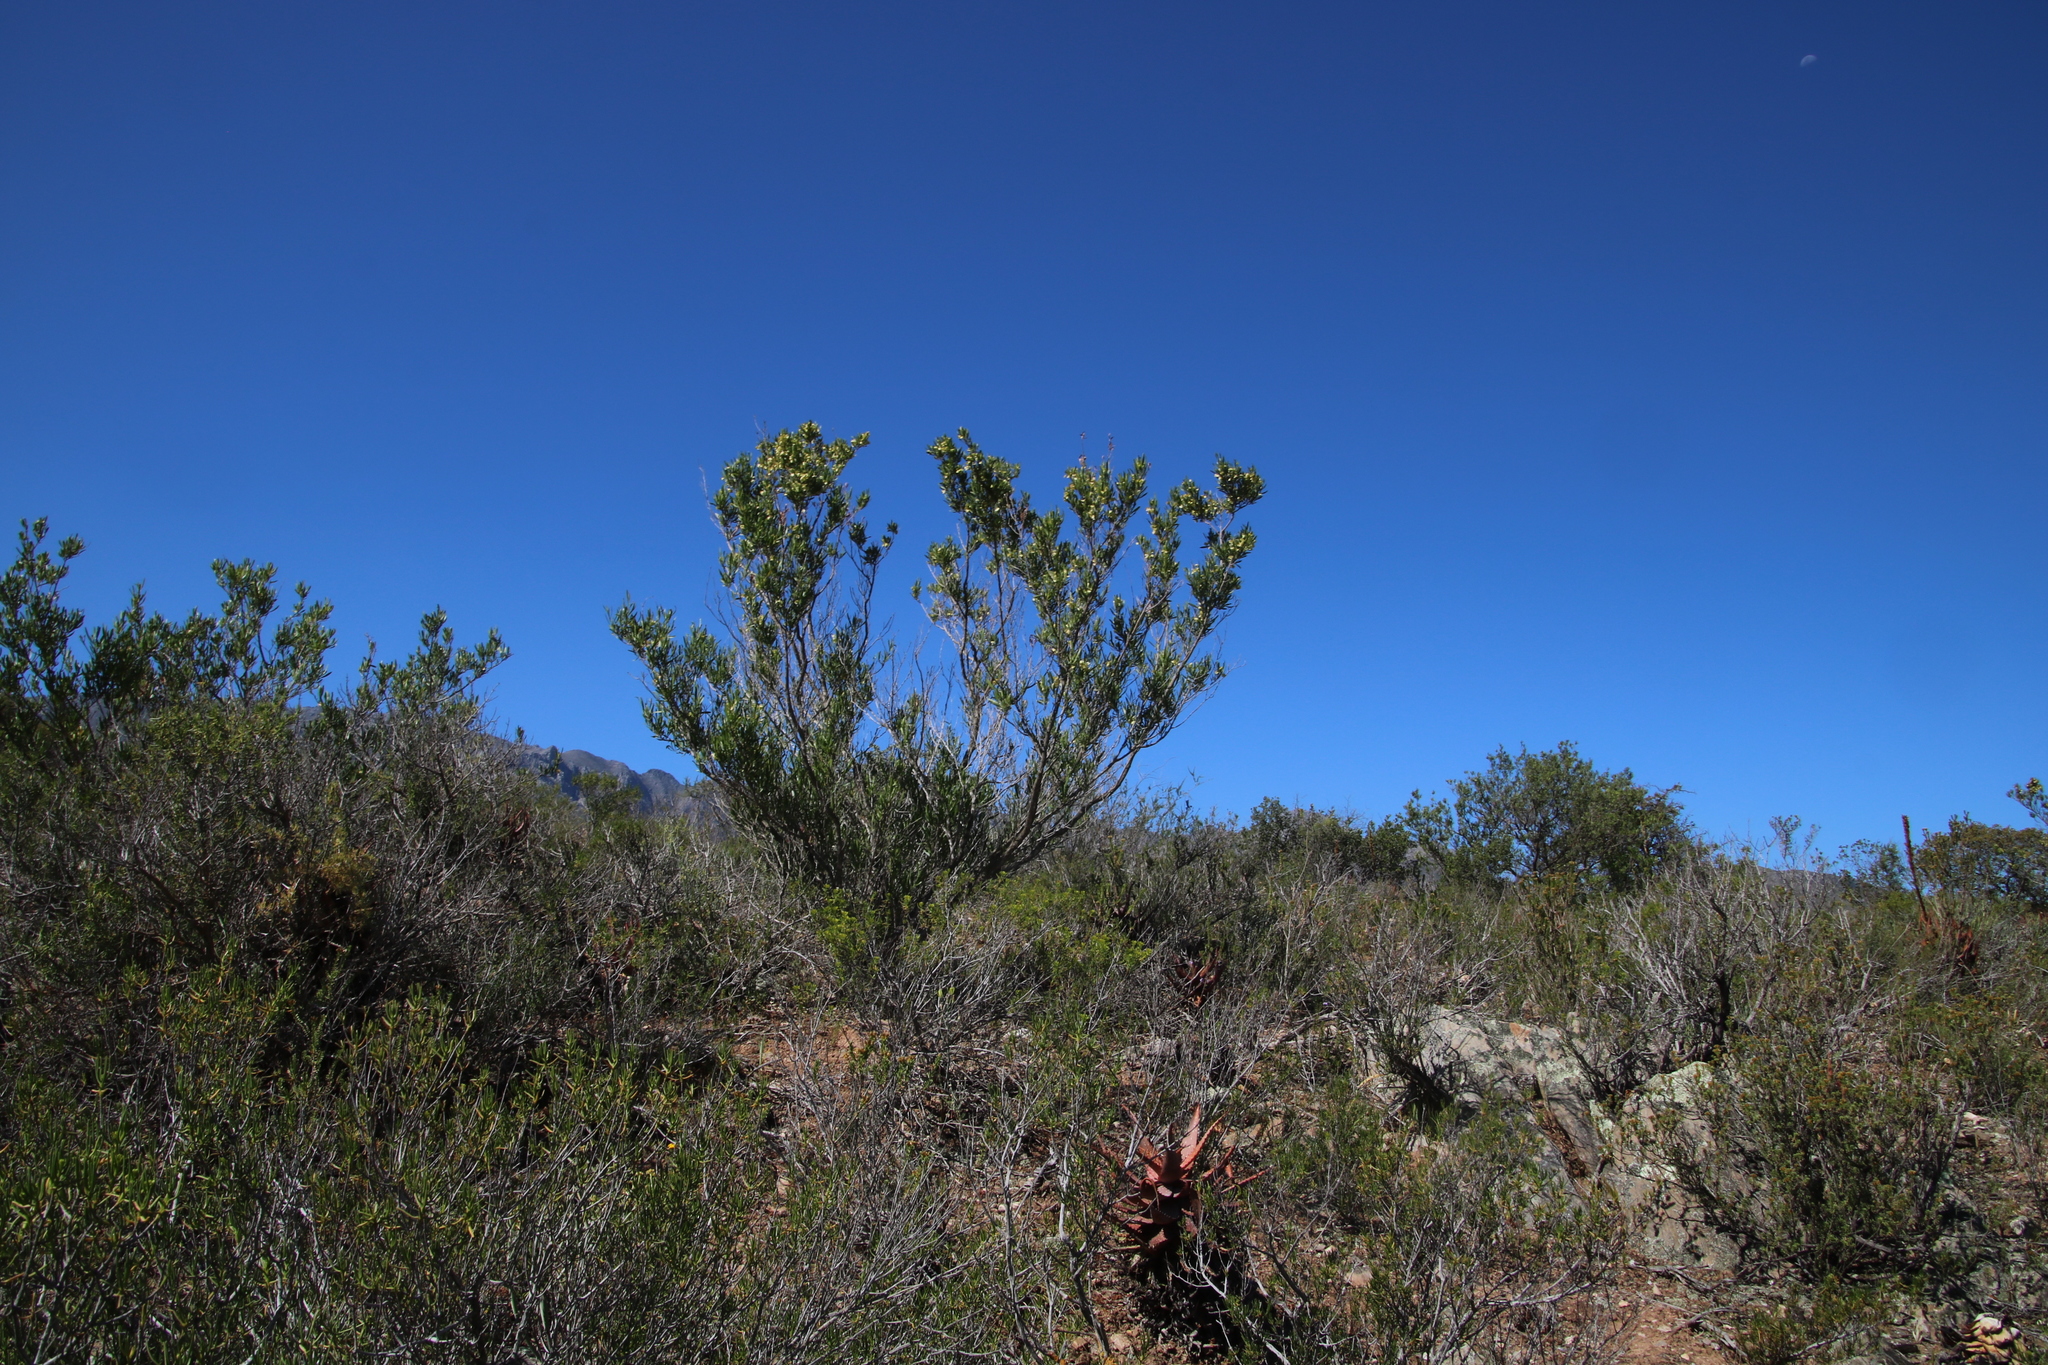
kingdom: Plantae
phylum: Tracheophyta
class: Magnoliopsida
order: Sapindales
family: Sapindaceae
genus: Dodonaea
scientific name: Dodonaea viscosa
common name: Hopbush
